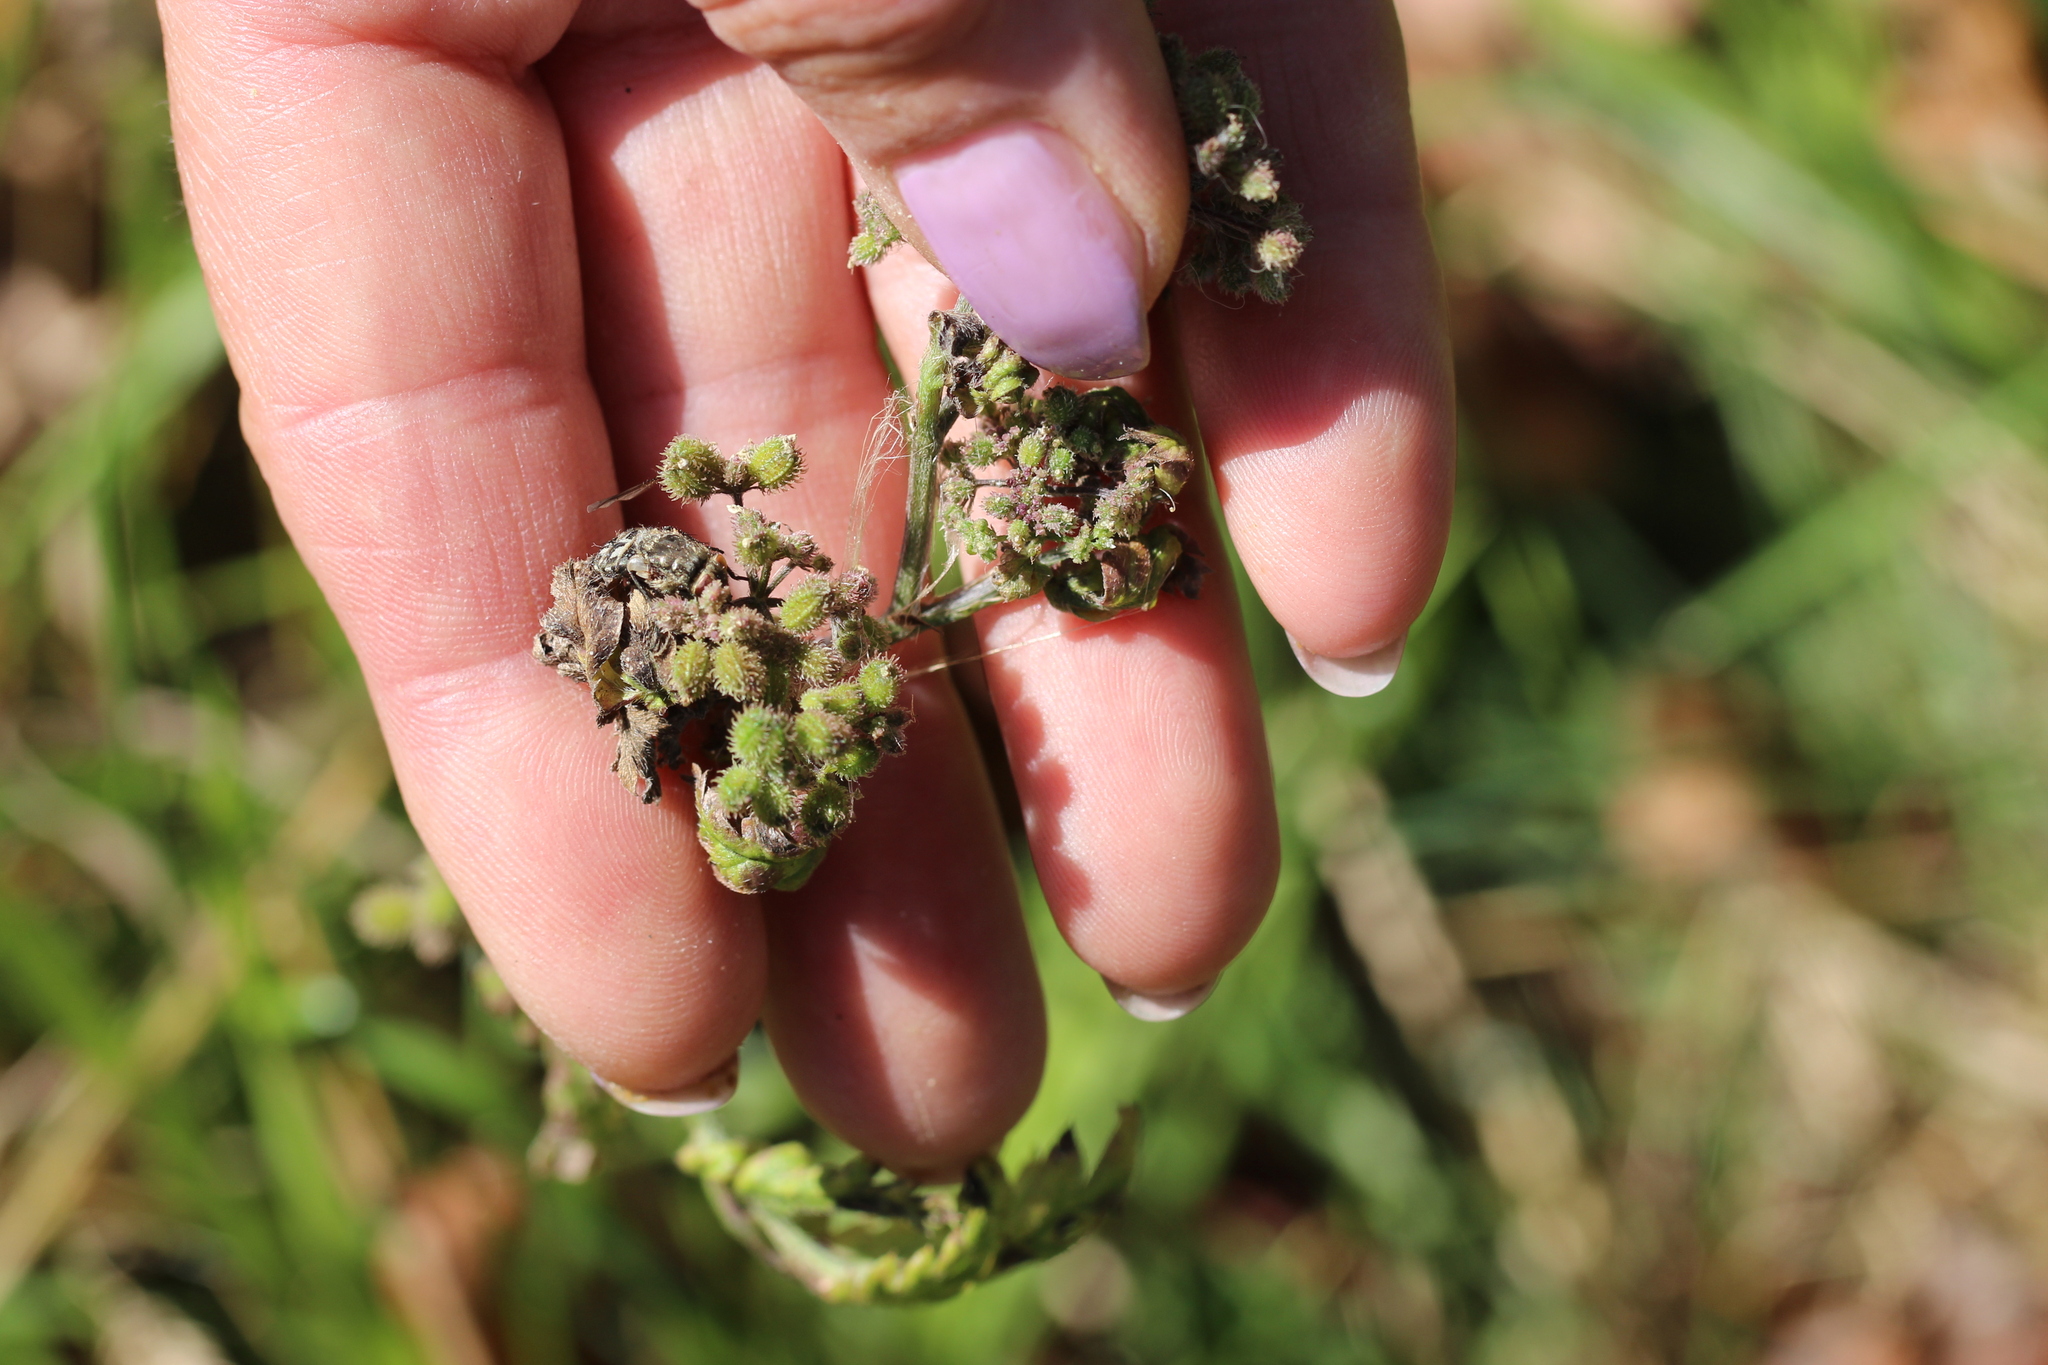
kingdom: Plantae
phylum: Tracheophyta
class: Magnoliopsida
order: Apiales
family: Apiaceae
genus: Torilis
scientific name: Torilis japonica
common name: Upright hedge-parsley
